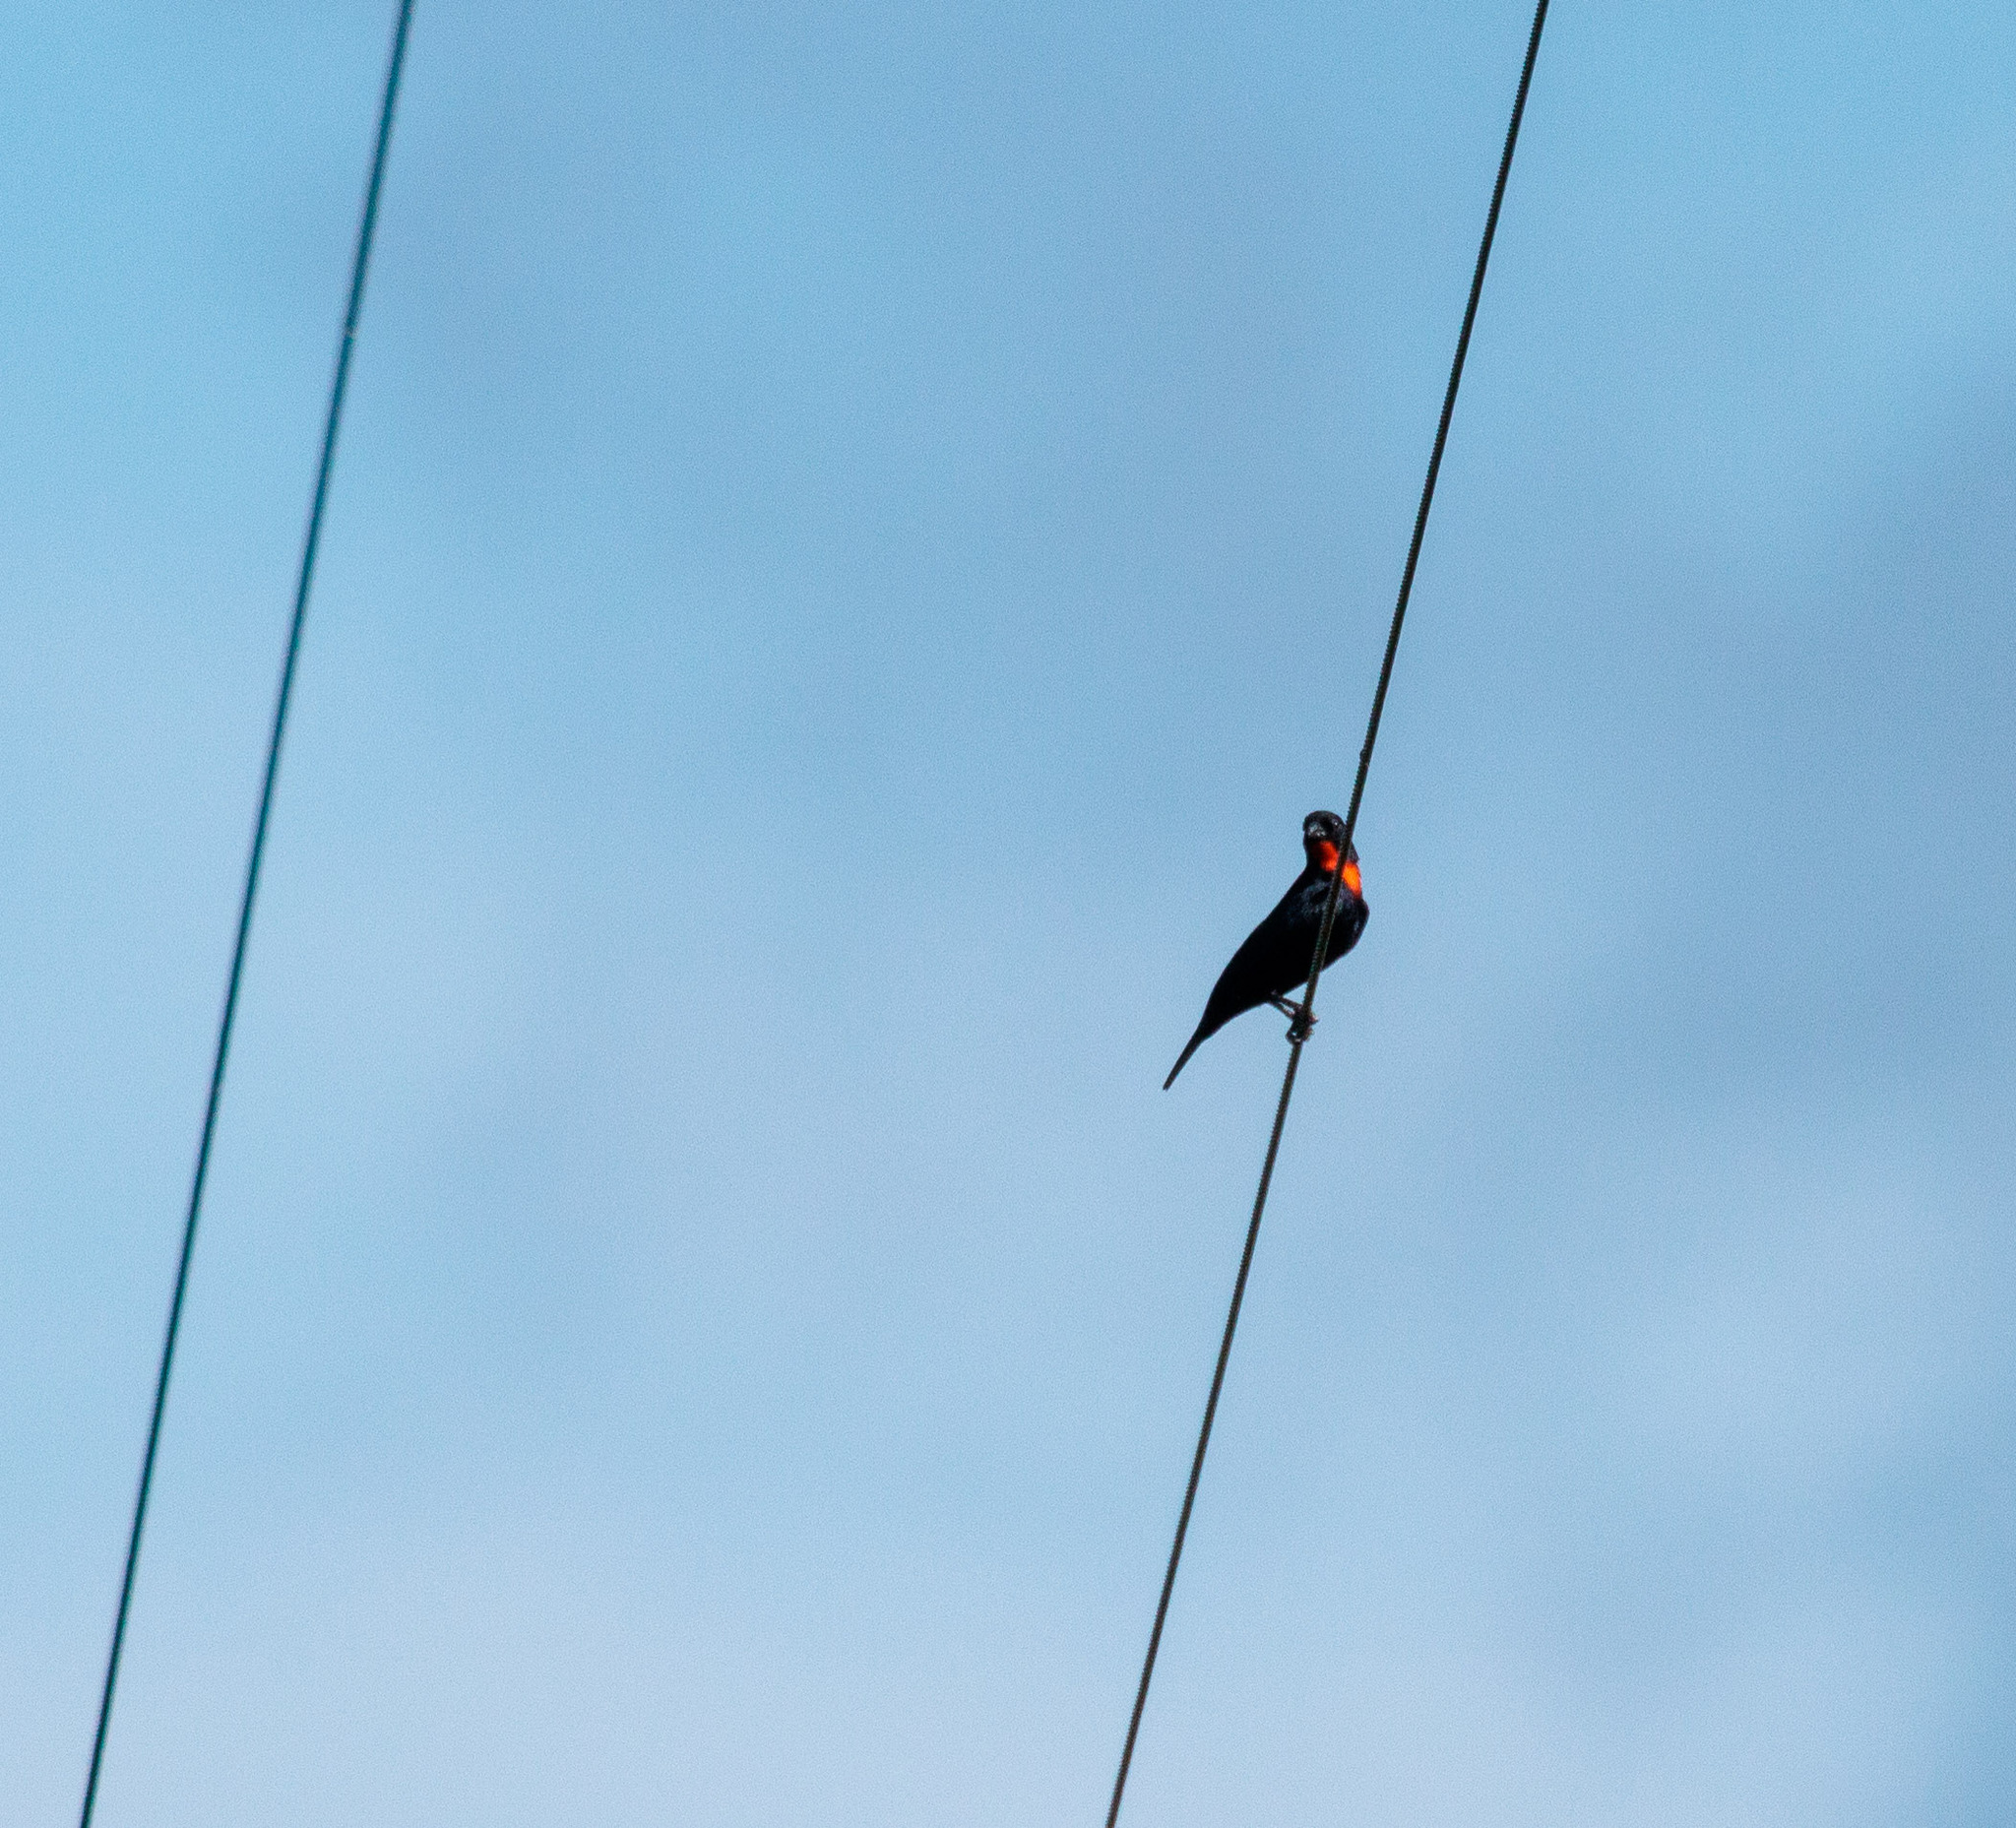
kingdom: Animalia
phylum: Chordata
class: Aves
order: Passeriformes
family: Thraupidae
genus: Compsothraupis
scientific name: Compsothraupis loricata
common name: Scarlet-throated tanager
